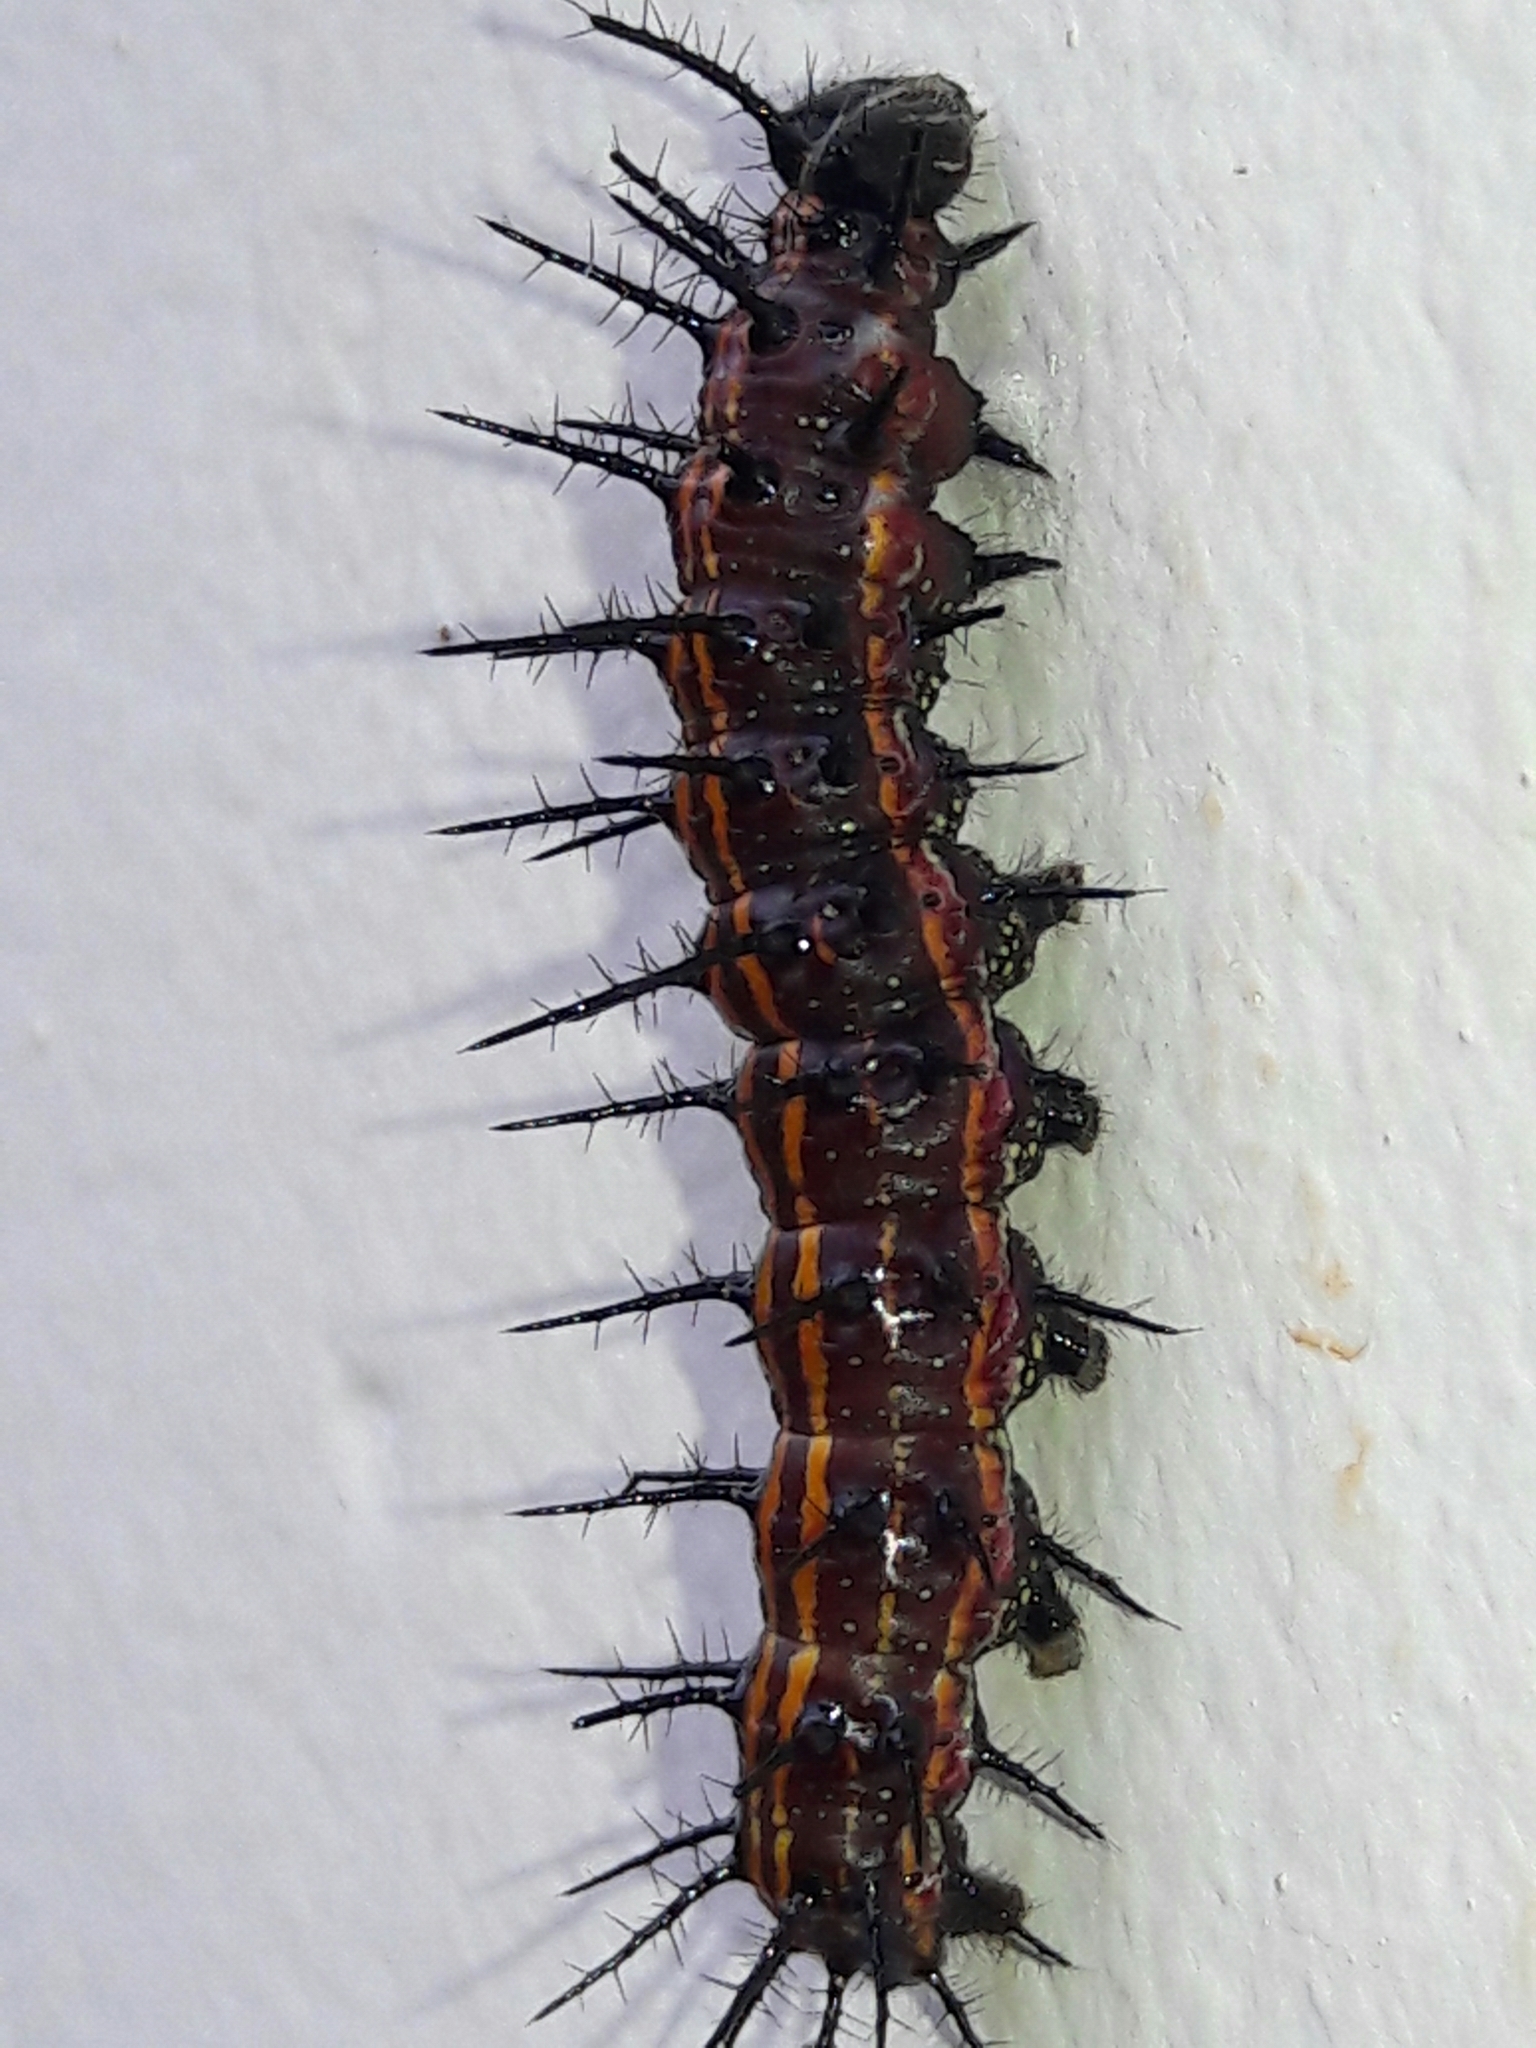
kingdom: Animalia
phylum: Arthropoda
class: Insecta
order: Lepidoptera
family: Nymphalidae
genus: Dione
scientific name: Dione vanillae
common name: Gulf fritillary
